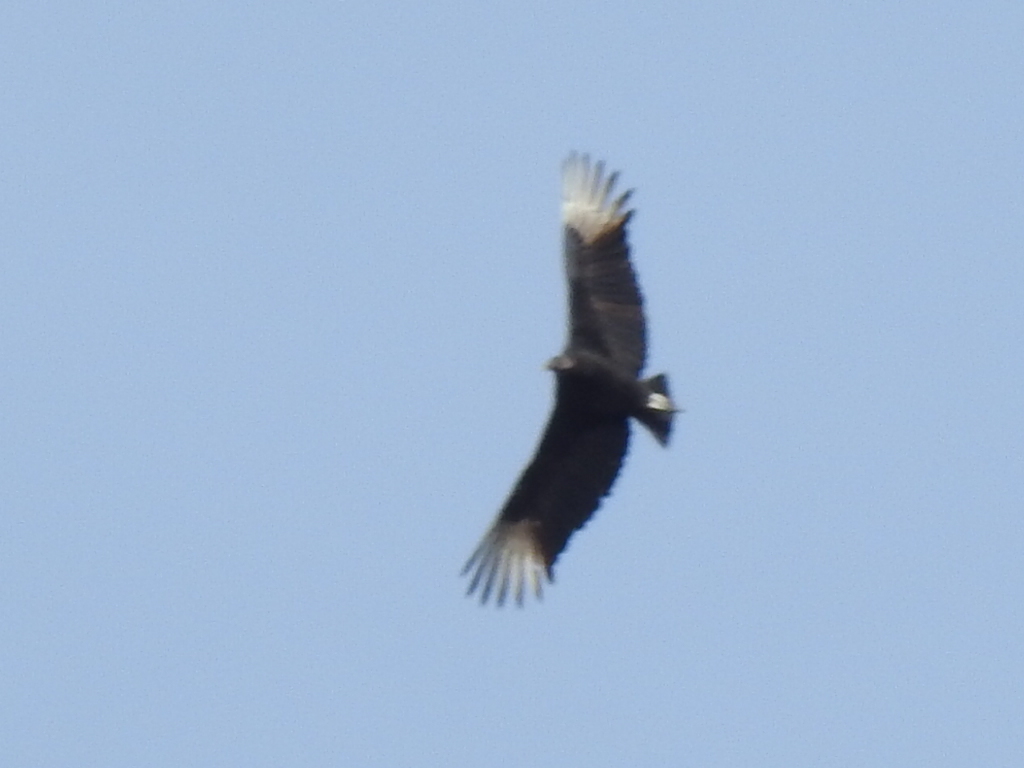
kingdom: Animalia
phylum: Chordata
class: Aves
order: Accipitriformes
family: Cathartidae
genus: Coragyps
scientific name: Coragyps atratus
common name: Black vulture
